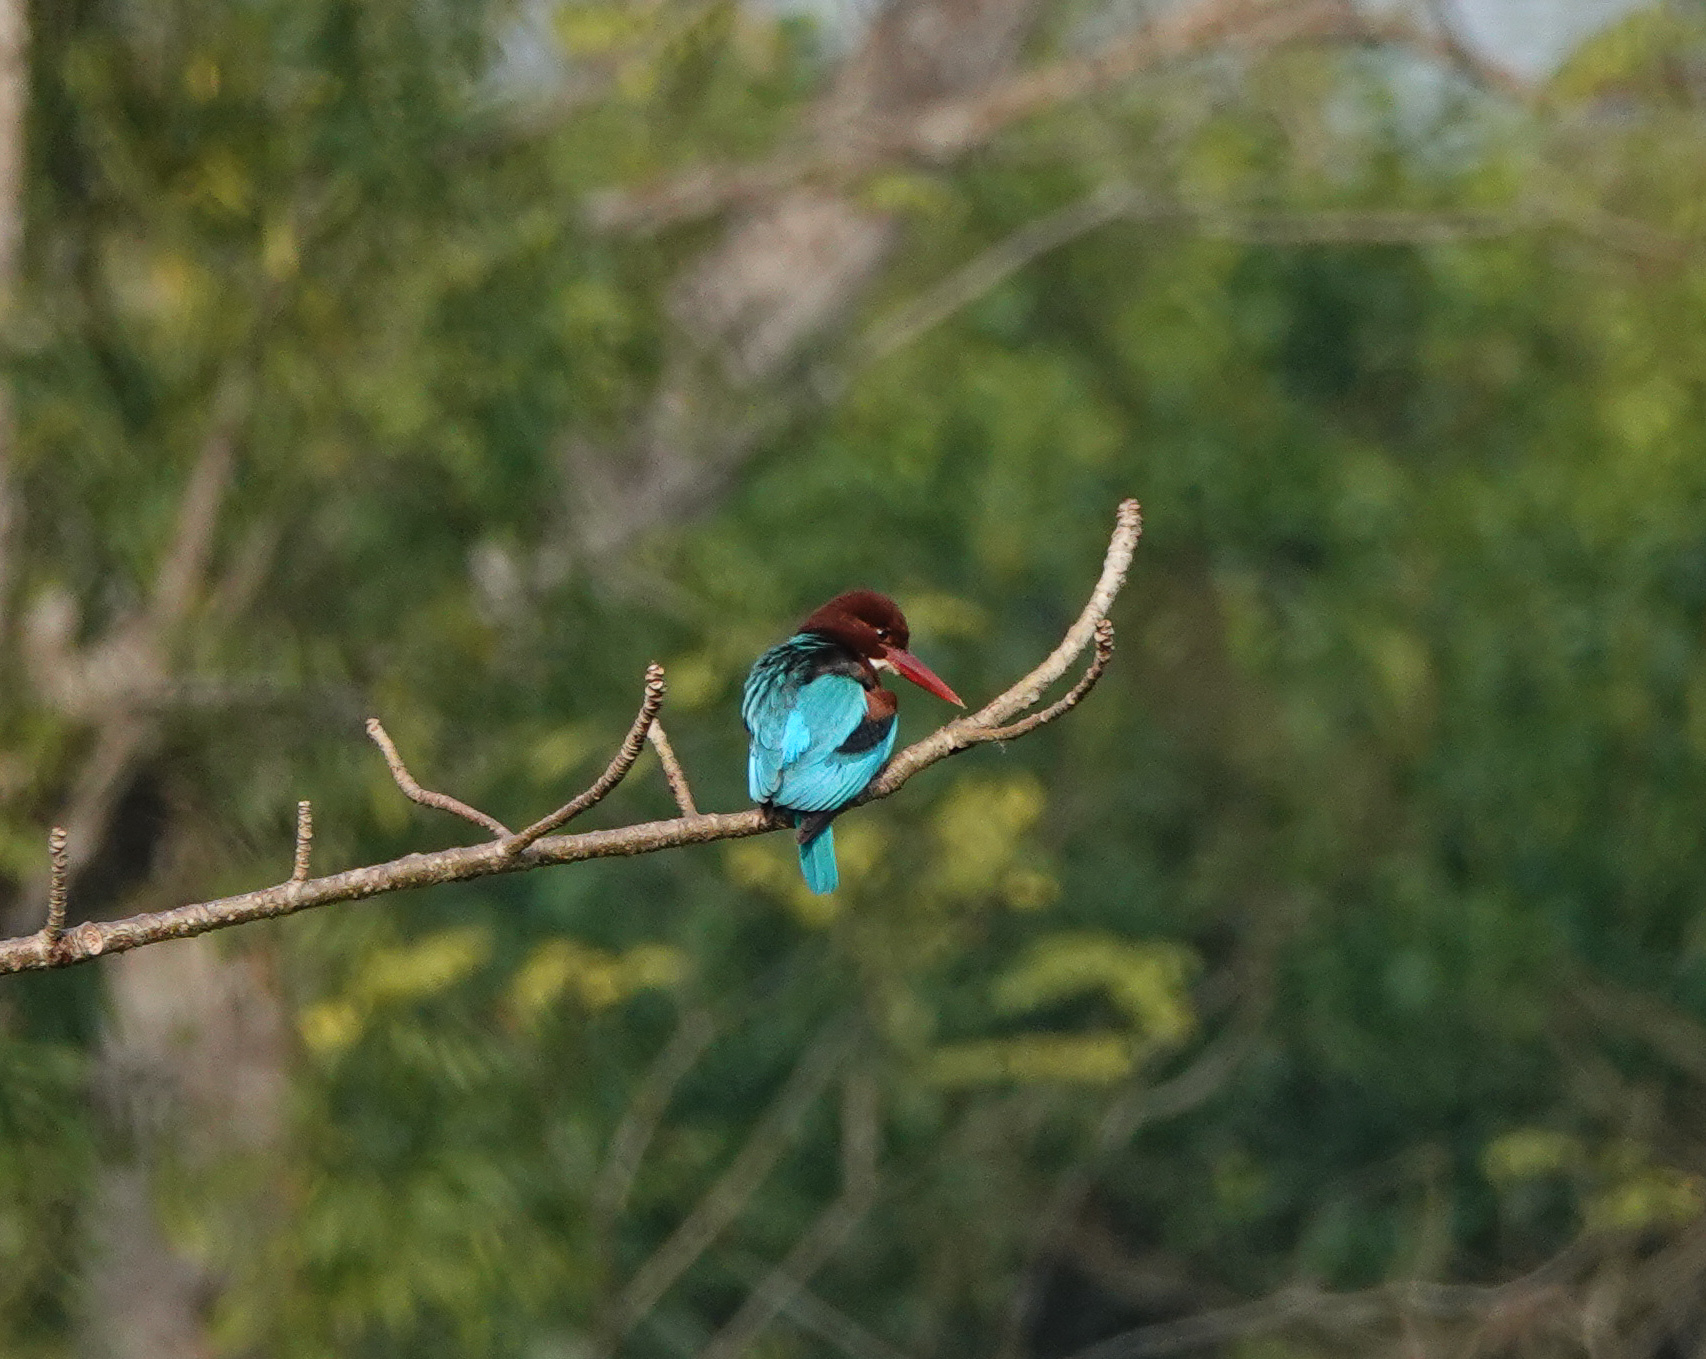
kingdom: Animalia
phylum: Chordata
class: Aves
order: Coraciiformes
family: Alcedinidae
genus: Halcyon
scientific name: Halcyon smyrnensis
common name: White-throated kingfisher
